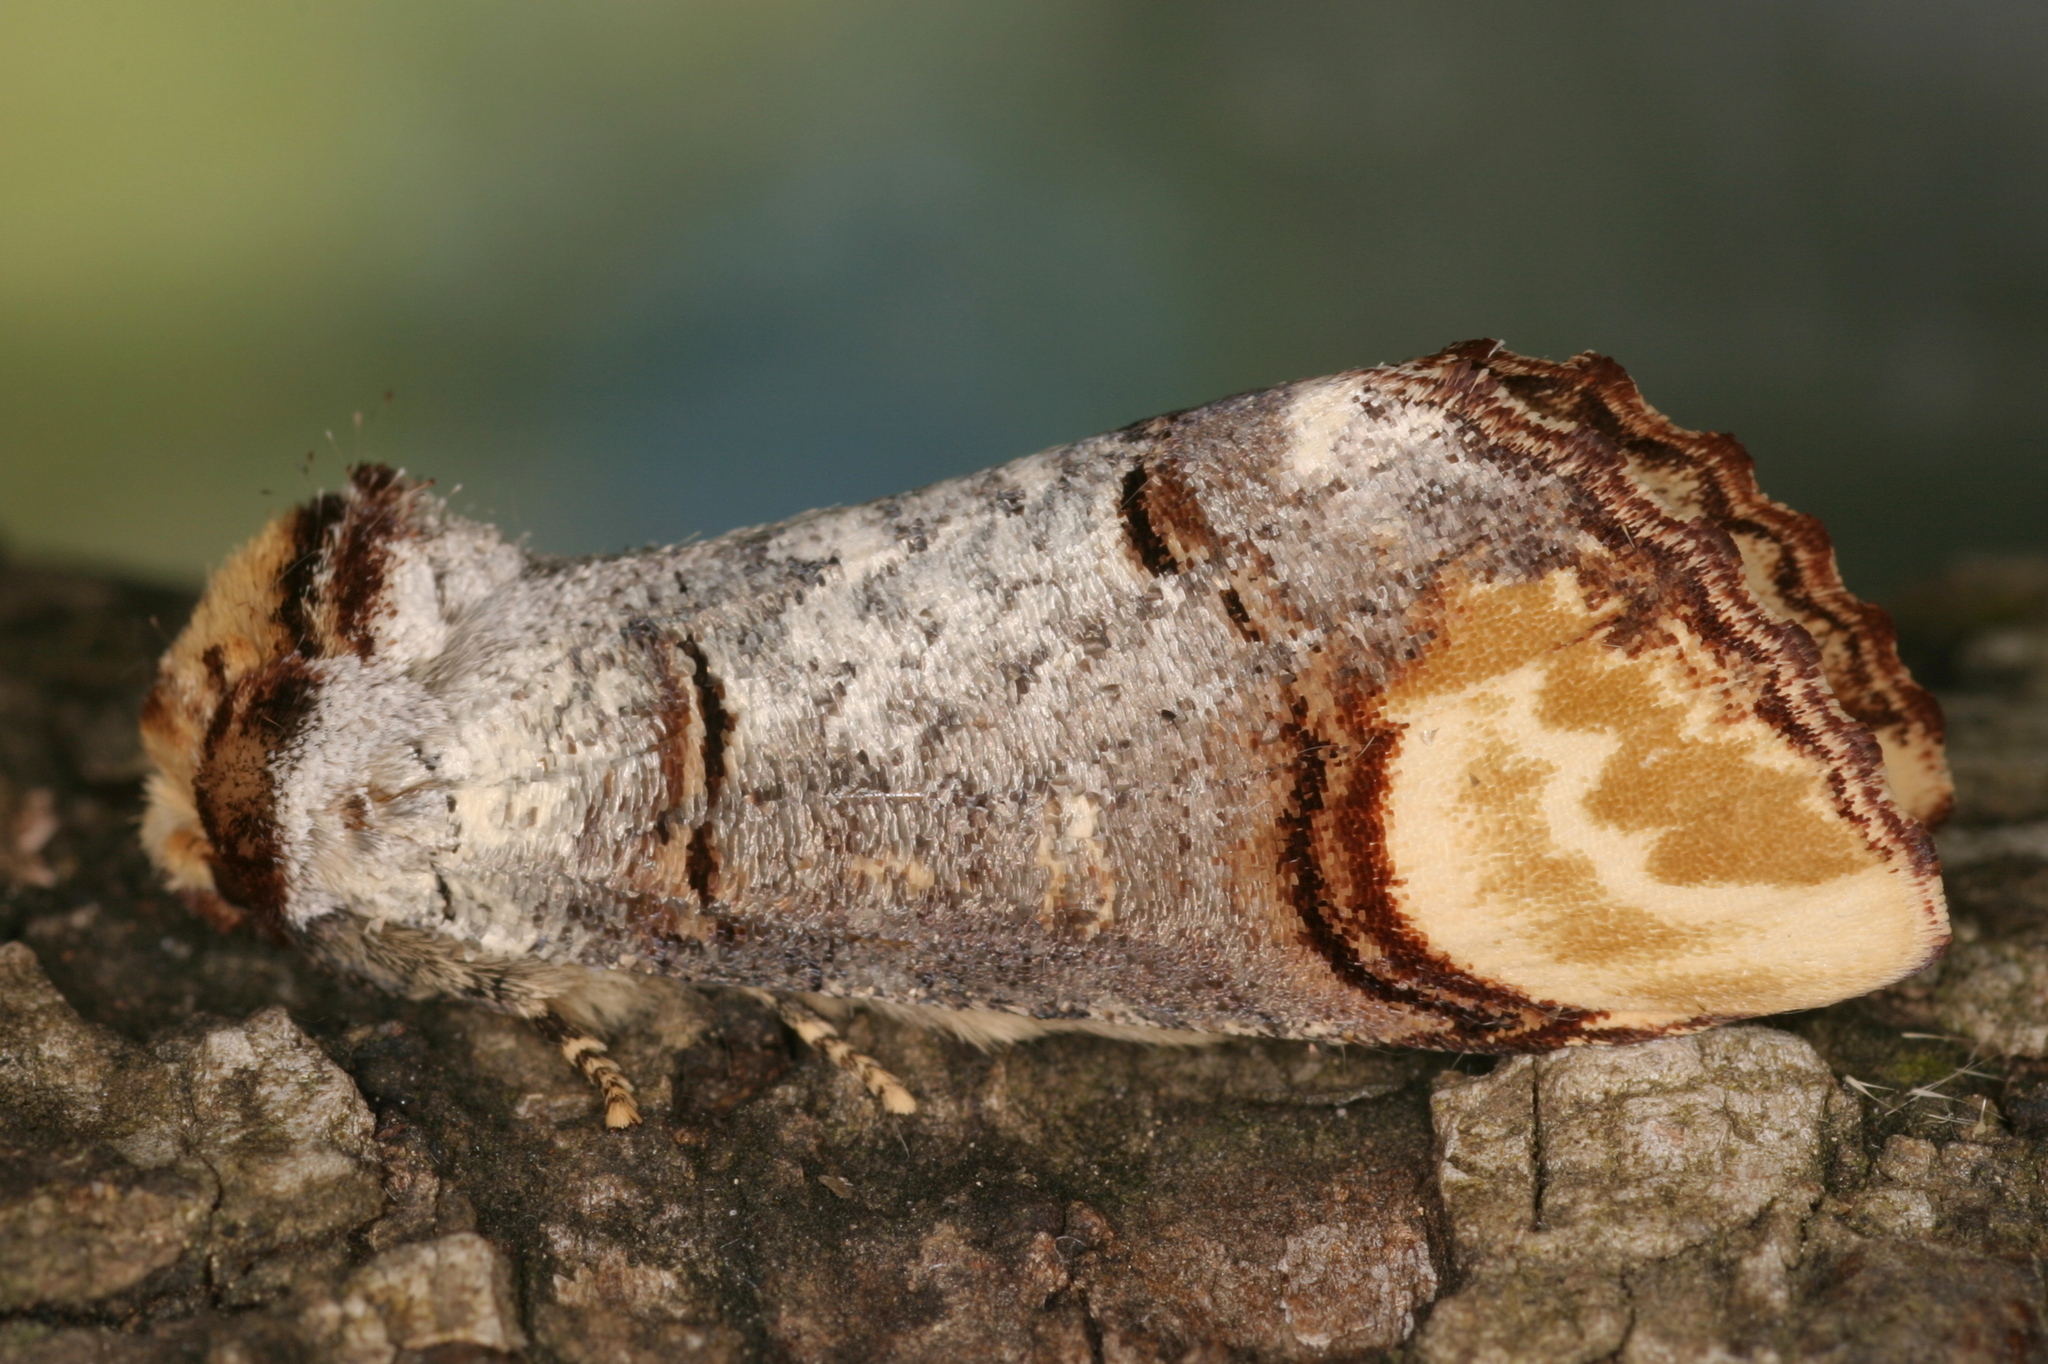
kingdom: Animalia
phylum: Arthropoda
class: Insecta
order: Lepidoptera
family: Notodontidae
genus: Phalera
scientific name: Phalera bucephala
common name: Buff-tip
